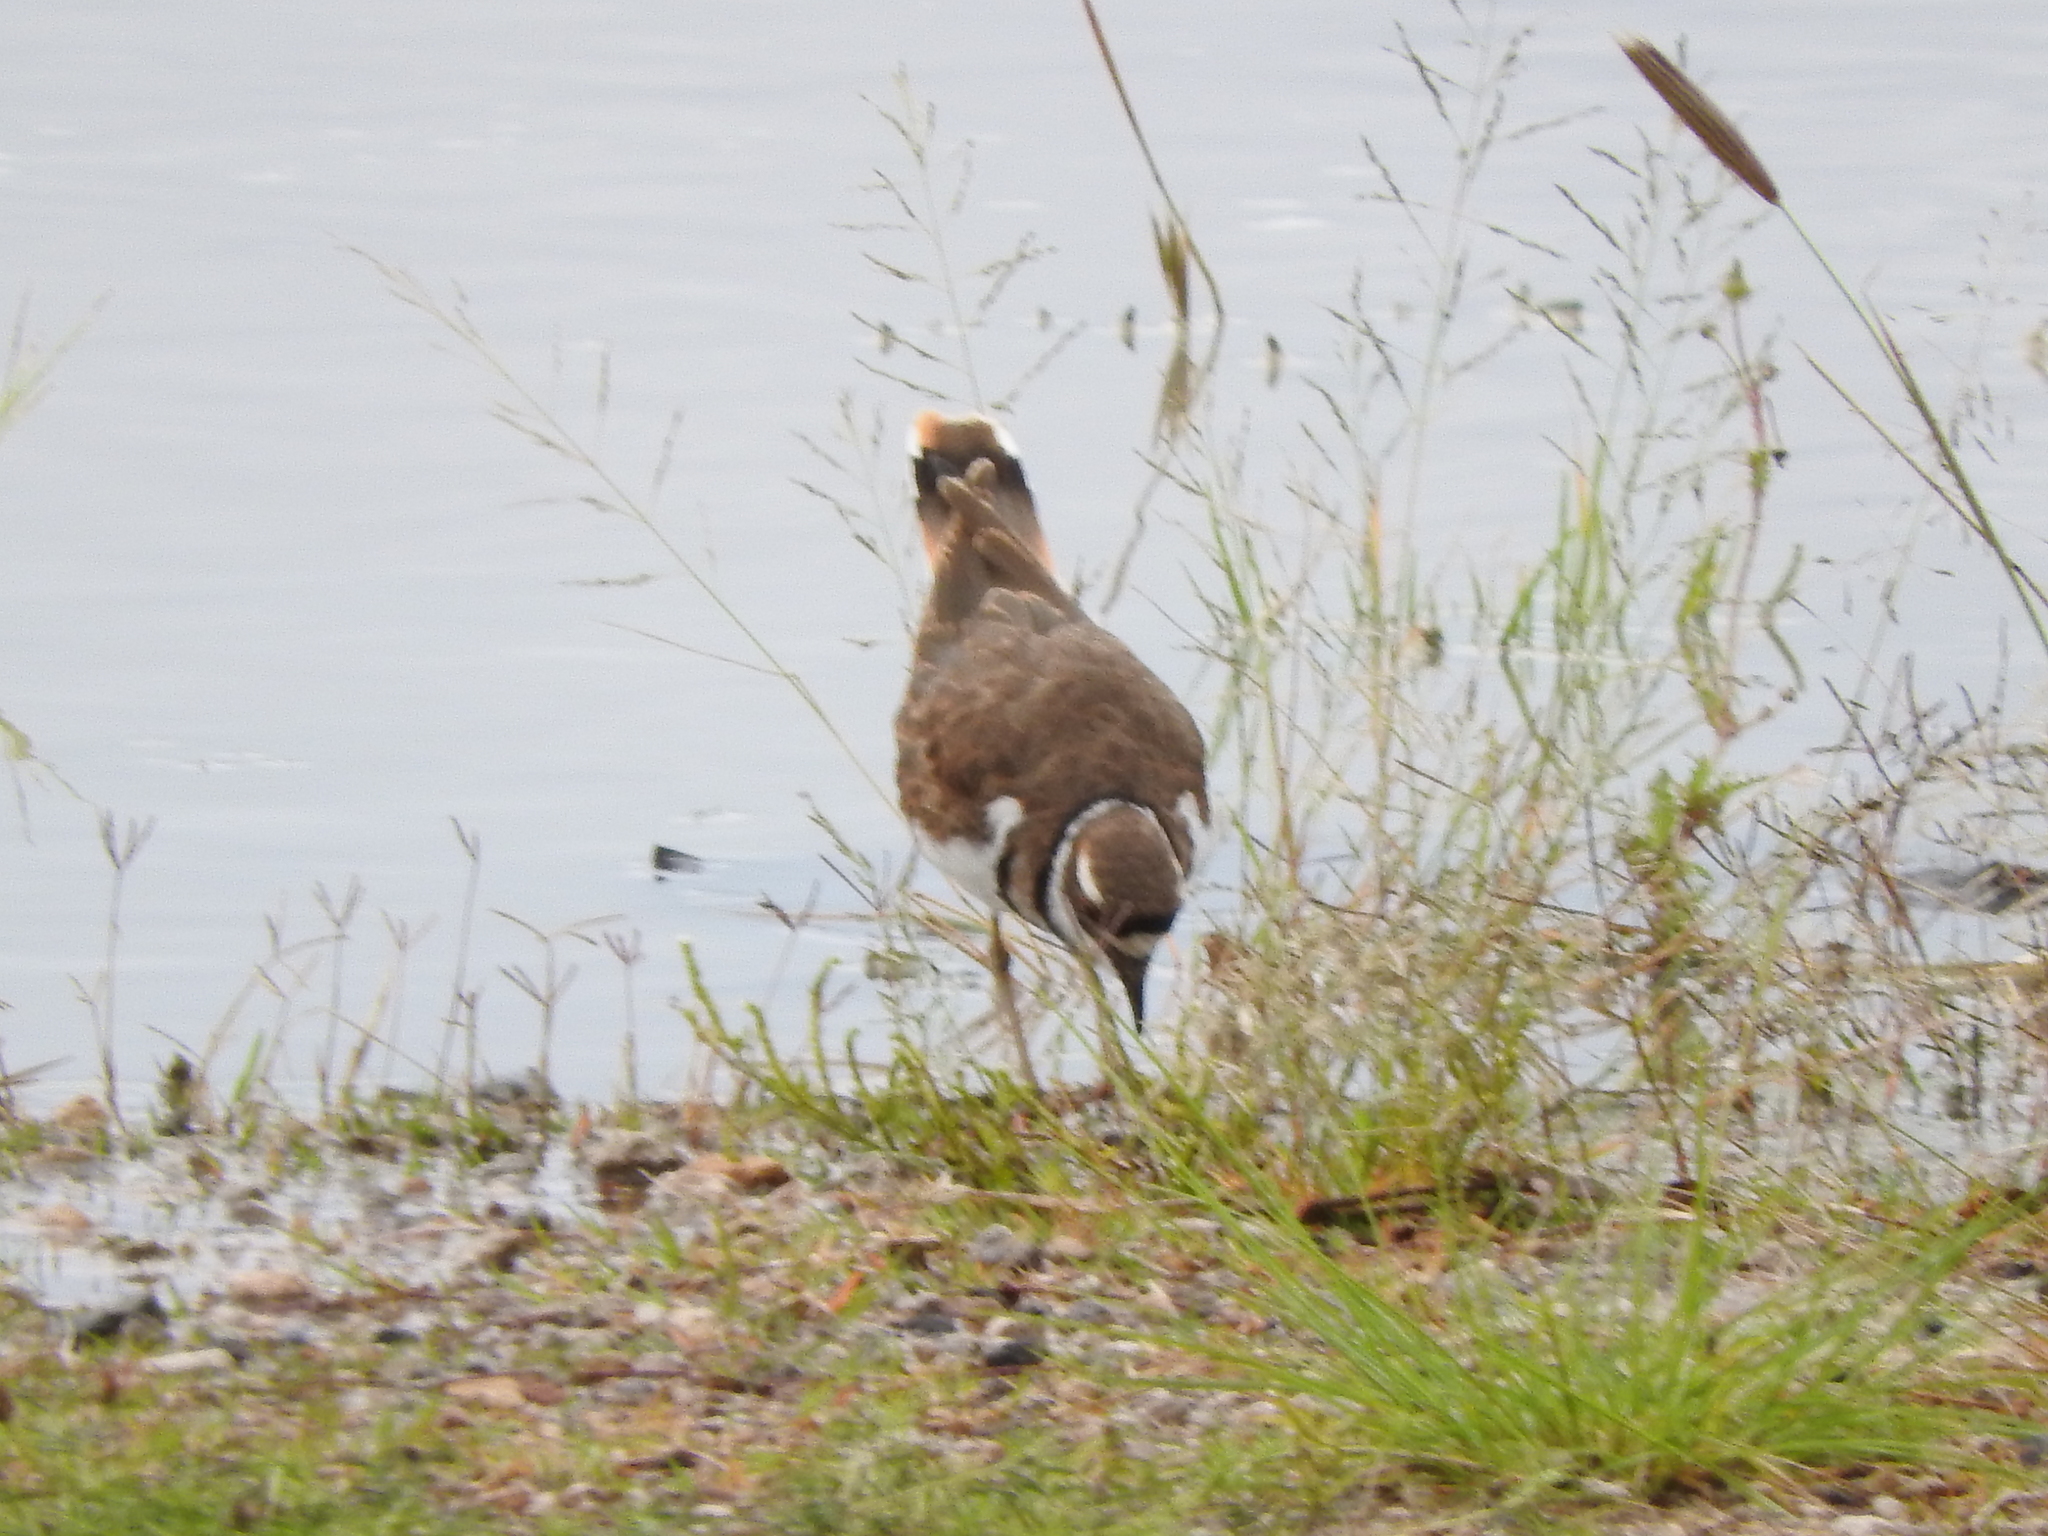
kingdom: Animalia
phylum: Chordata
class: Aves
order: Charadriiformes
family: Charadriidae
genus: Charadrius
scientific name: Charadrius vociferus
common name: Killdeer
